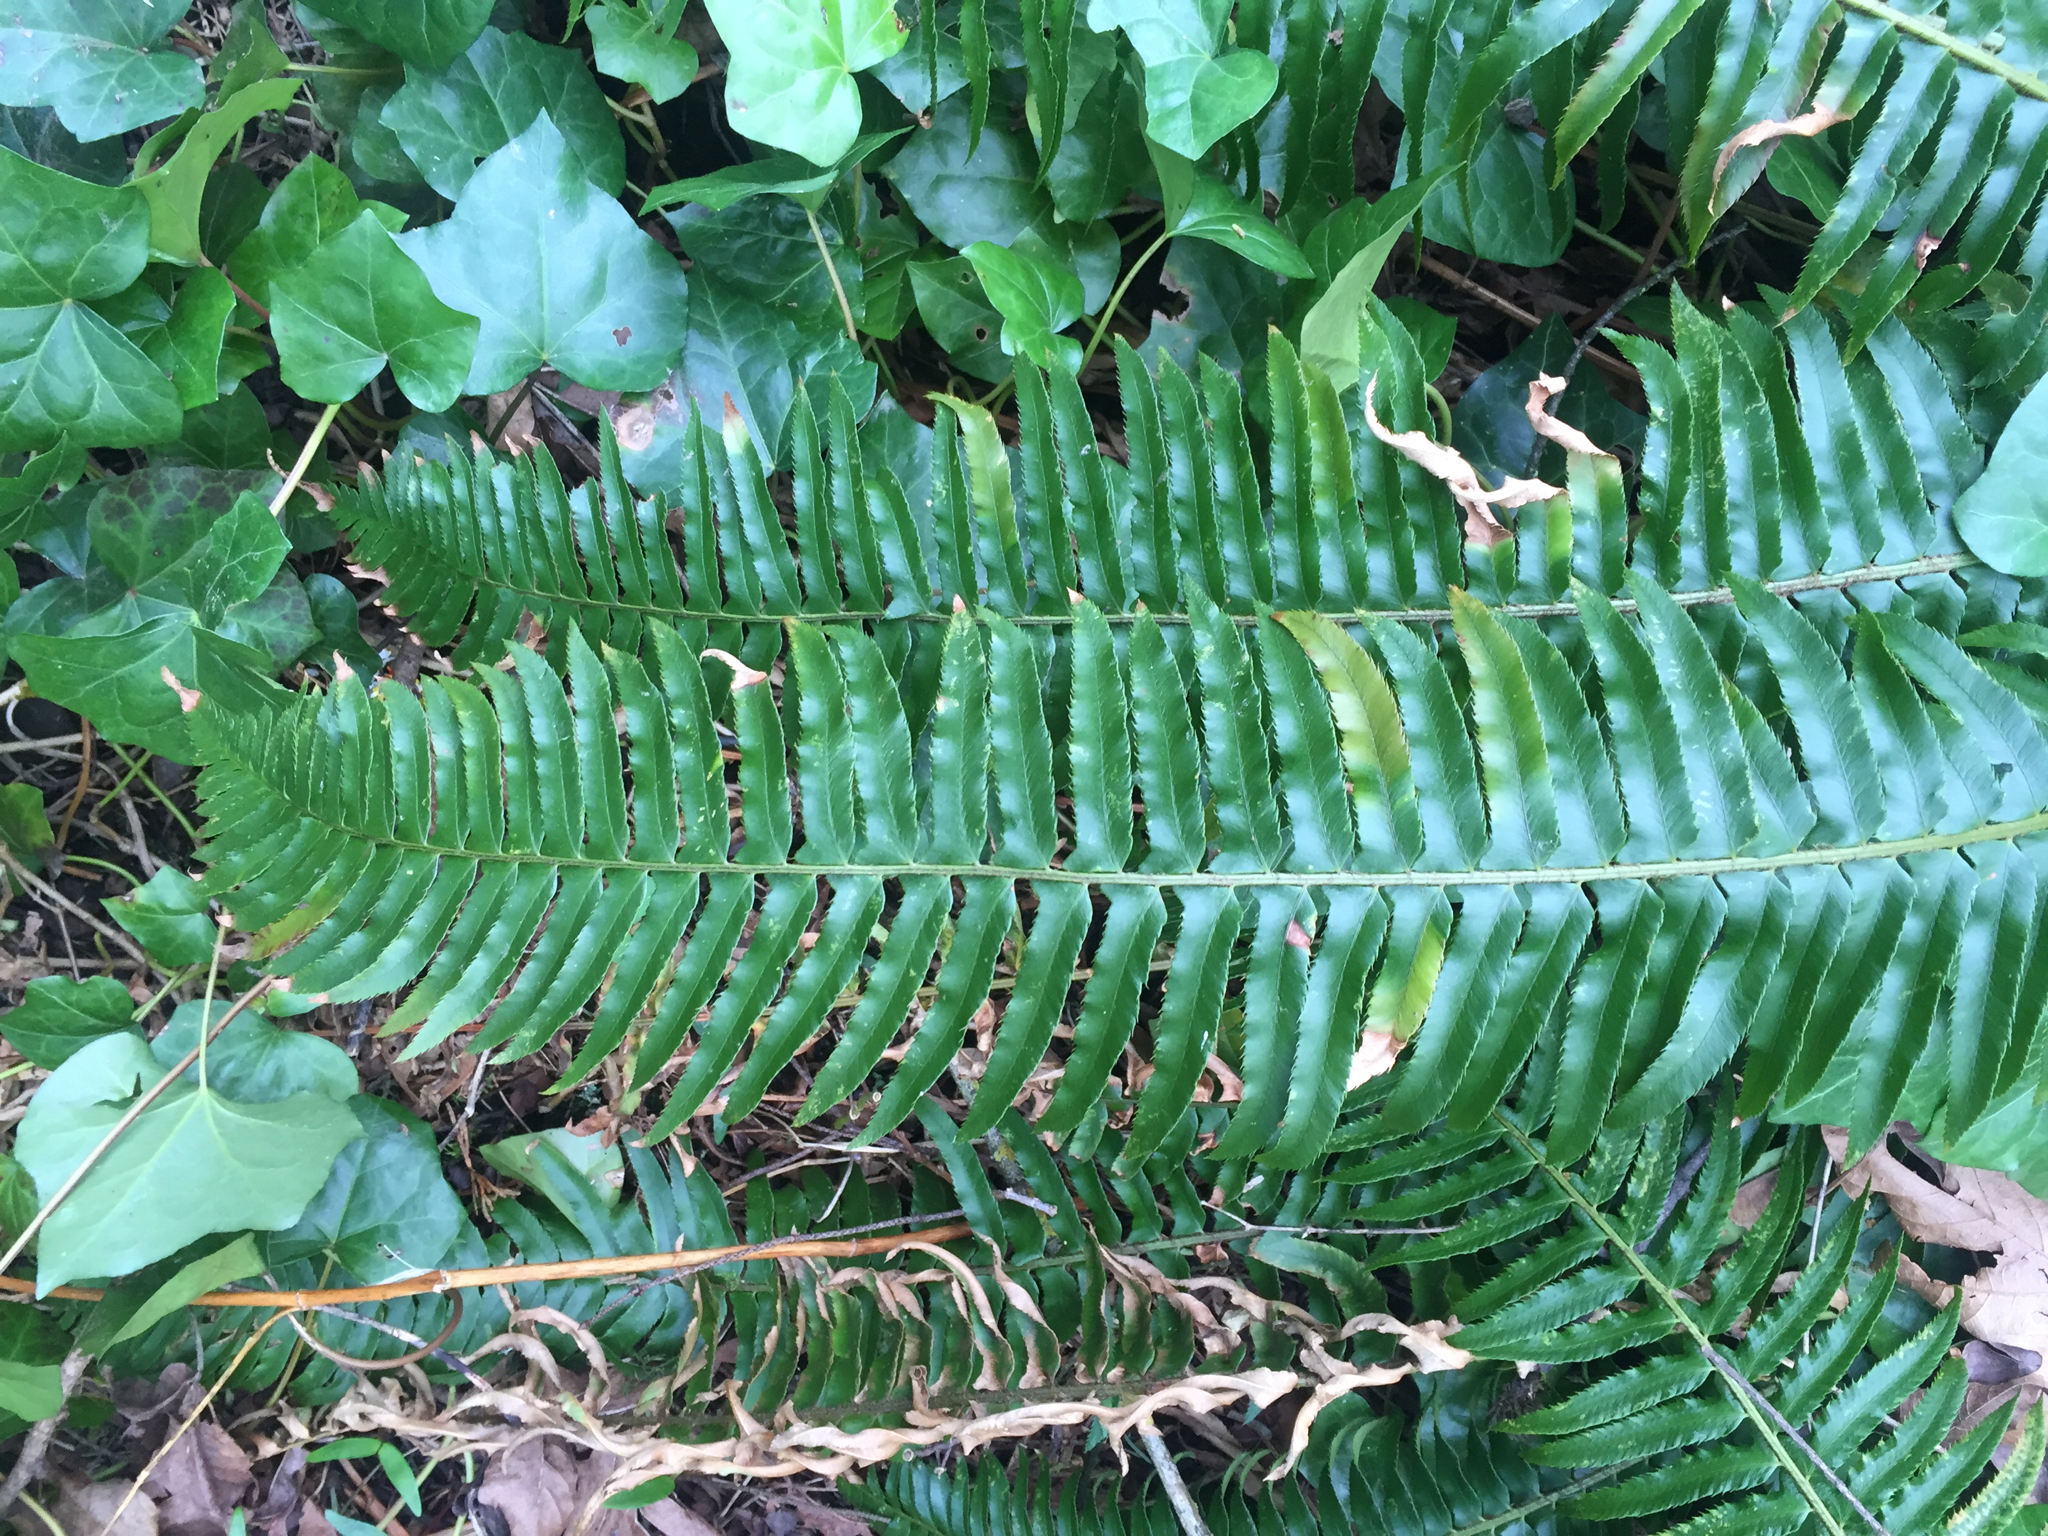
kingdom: Plantae
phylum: Tracheophyta
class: Polypodiopsida
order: Polypodiales
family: Dryopteridaceae
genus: Polystichum
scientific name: Polystichum munitum
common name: Western sword-fern
